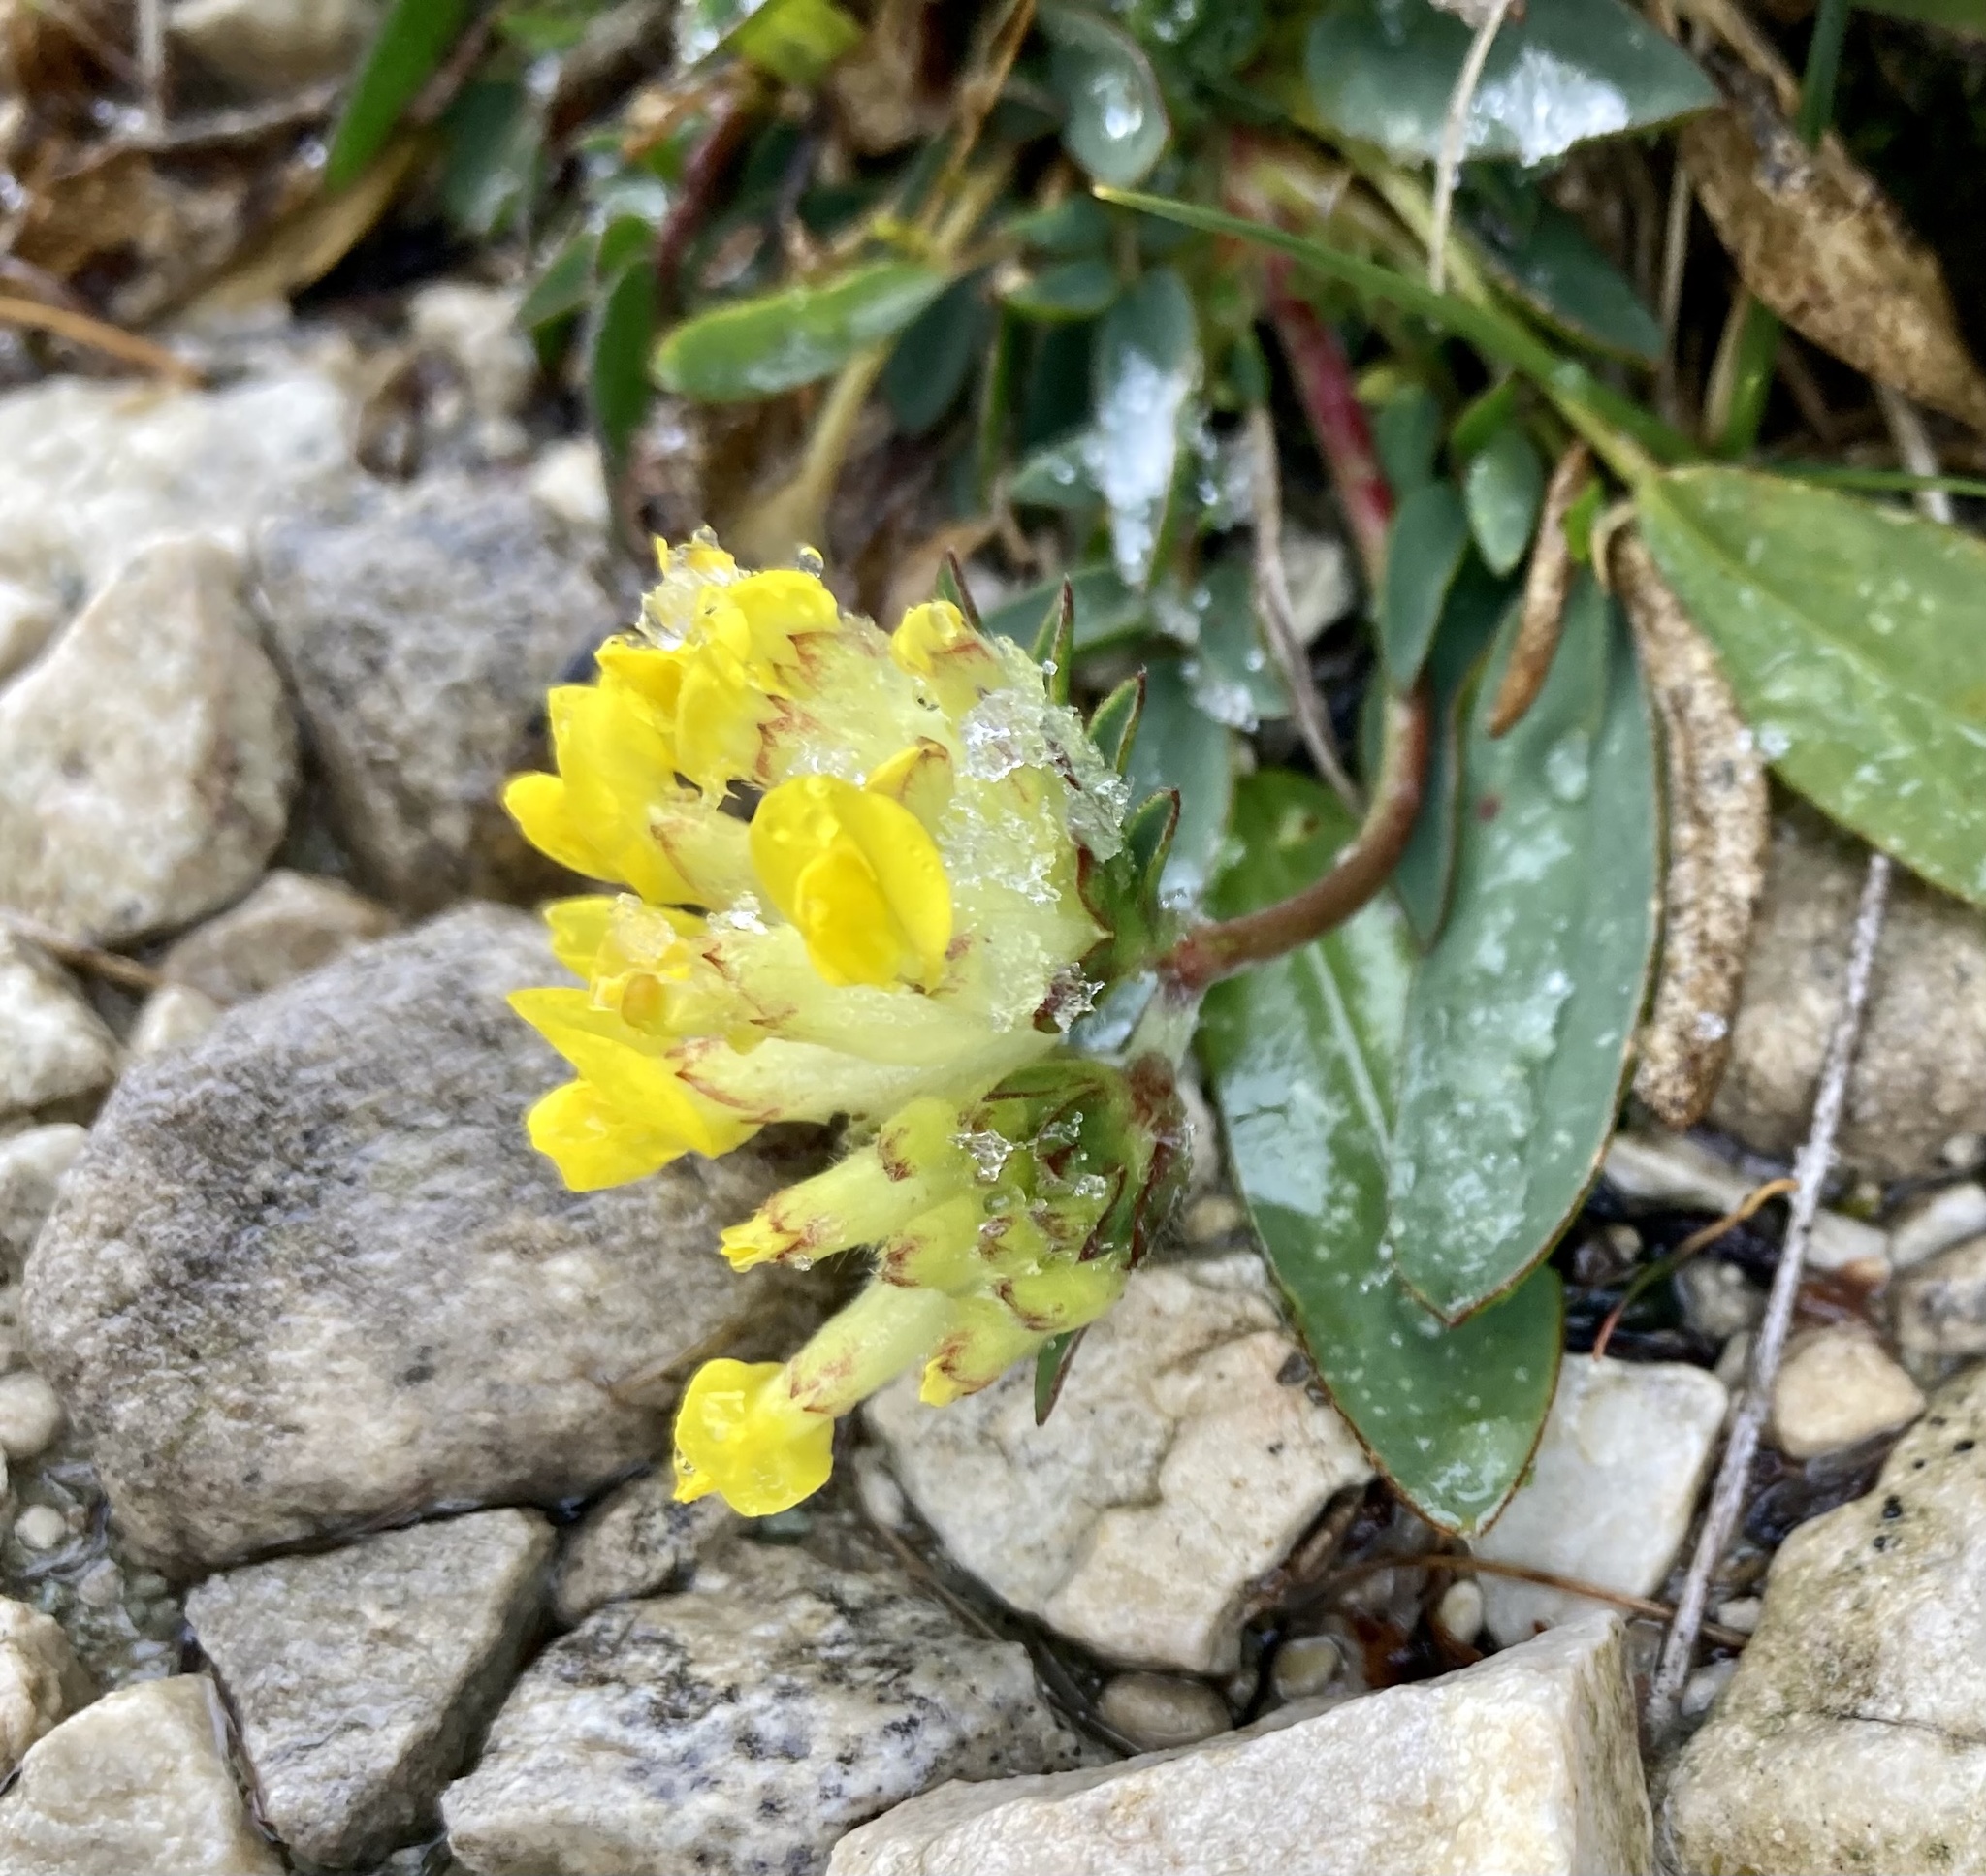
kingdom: Plantae
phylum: Tracheophyta
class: Magnoliopsida
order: Fabales
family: Fabaceae
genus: Anthyllis
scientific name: Anthyllis vulneraria
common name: Kidney vetch
